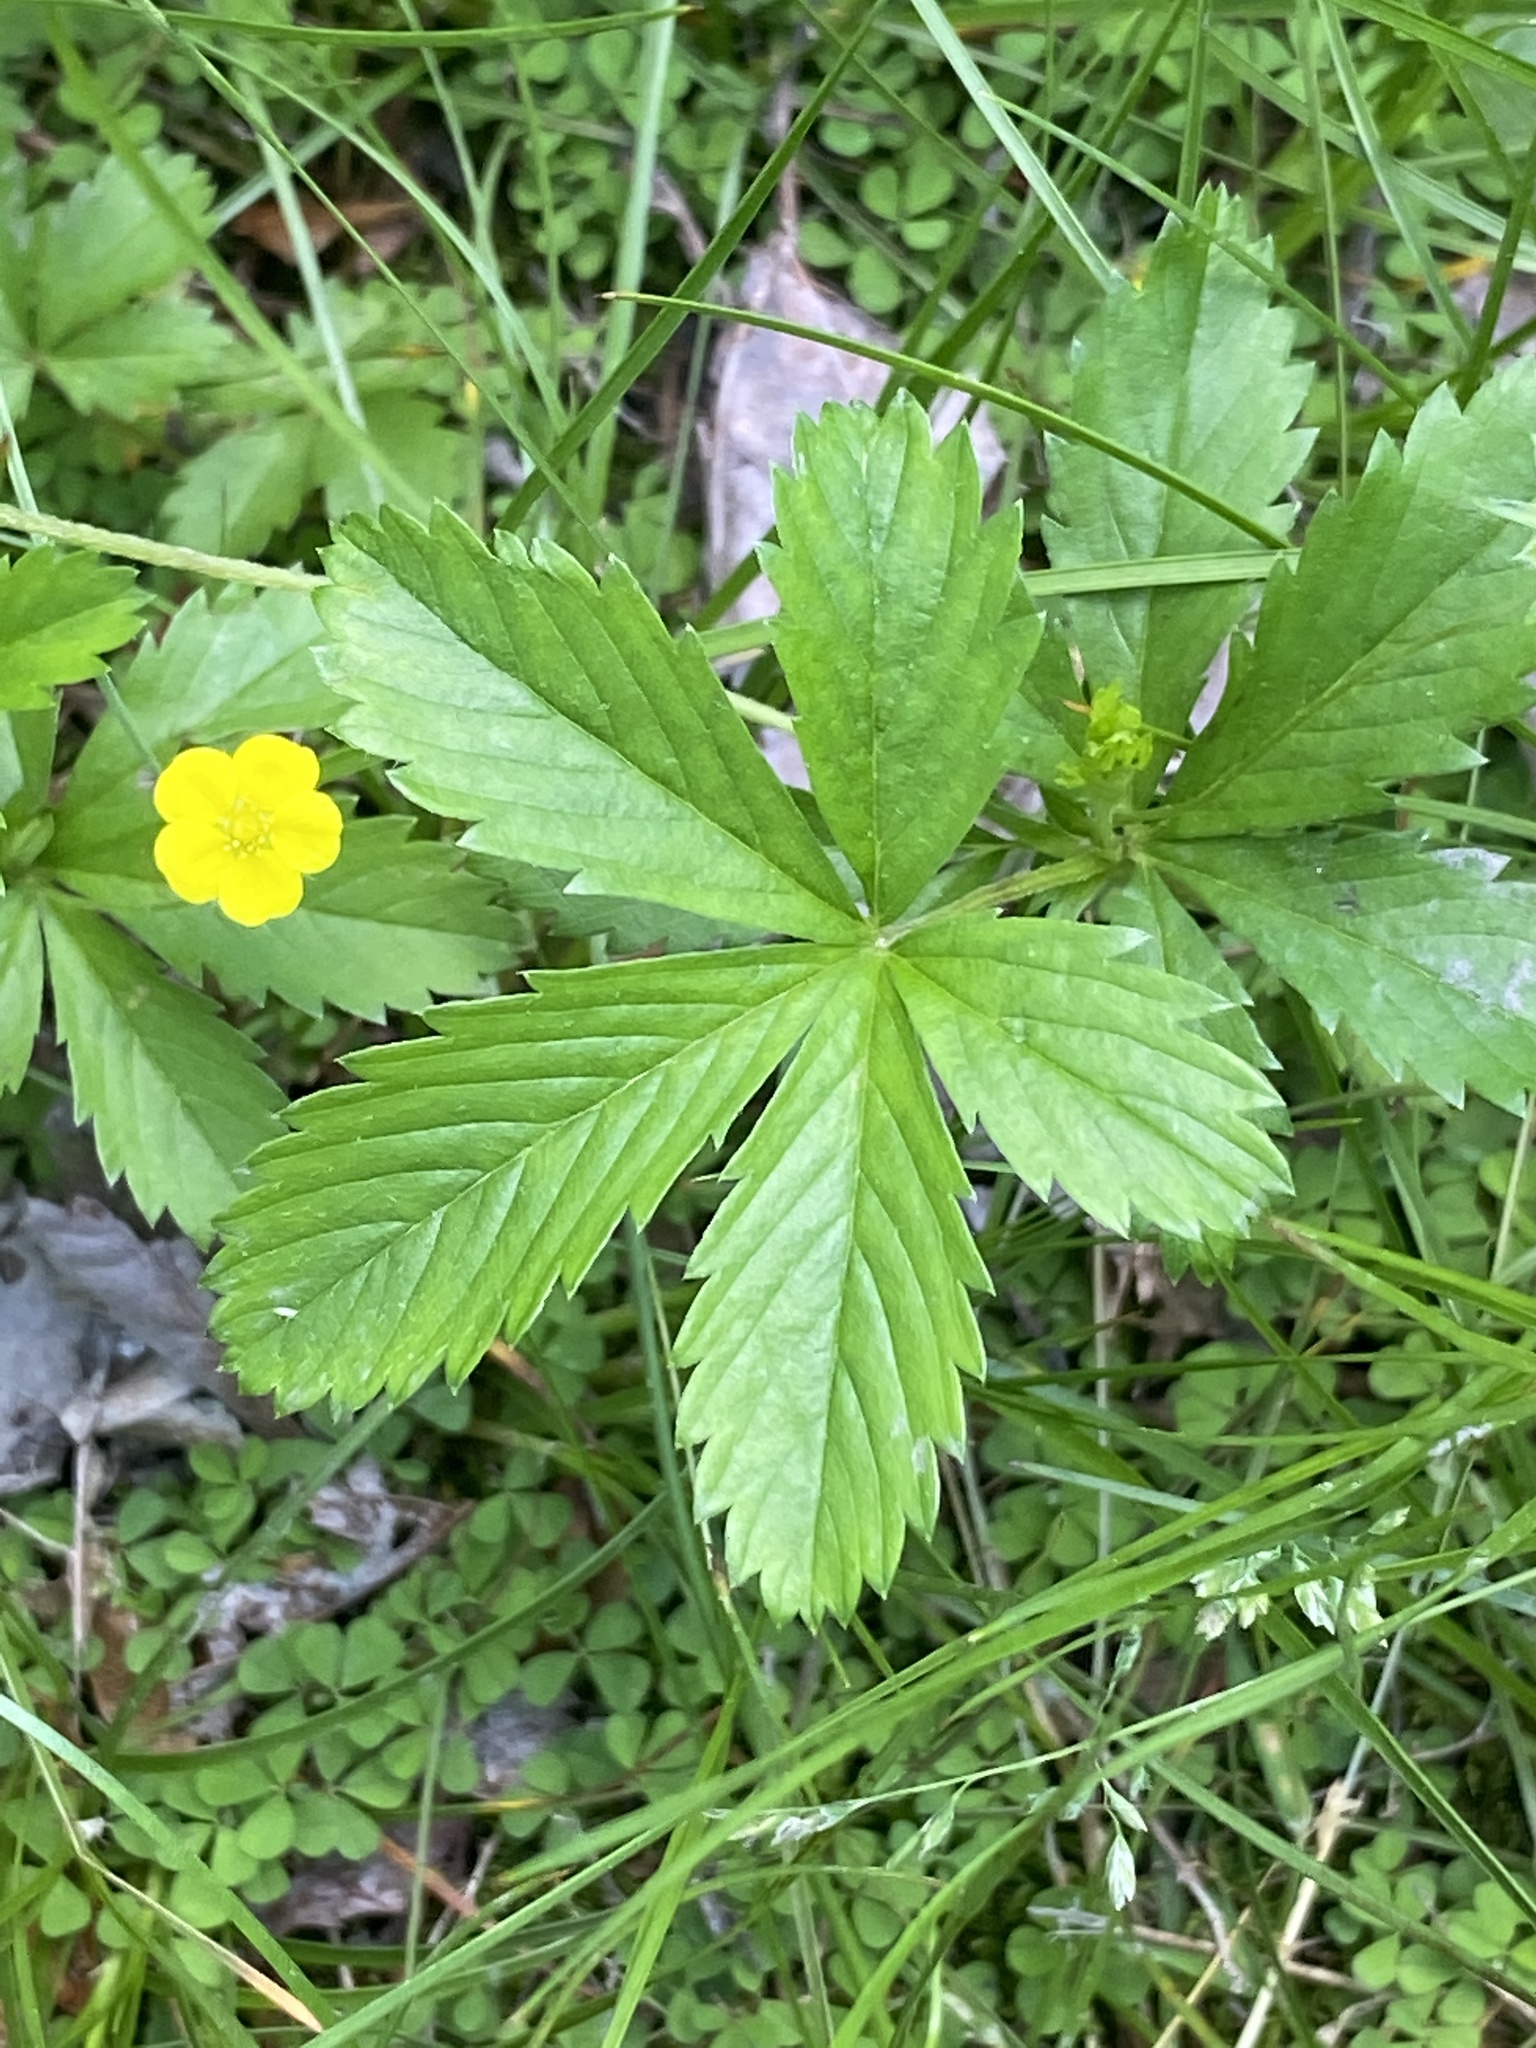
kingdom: Plantae
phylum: Tracheophyta
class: Magnoliopsida
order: Rosales
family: Rosaceae
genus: Potentilla
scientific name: Potentilla simplex
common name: Old field cinquefoil
